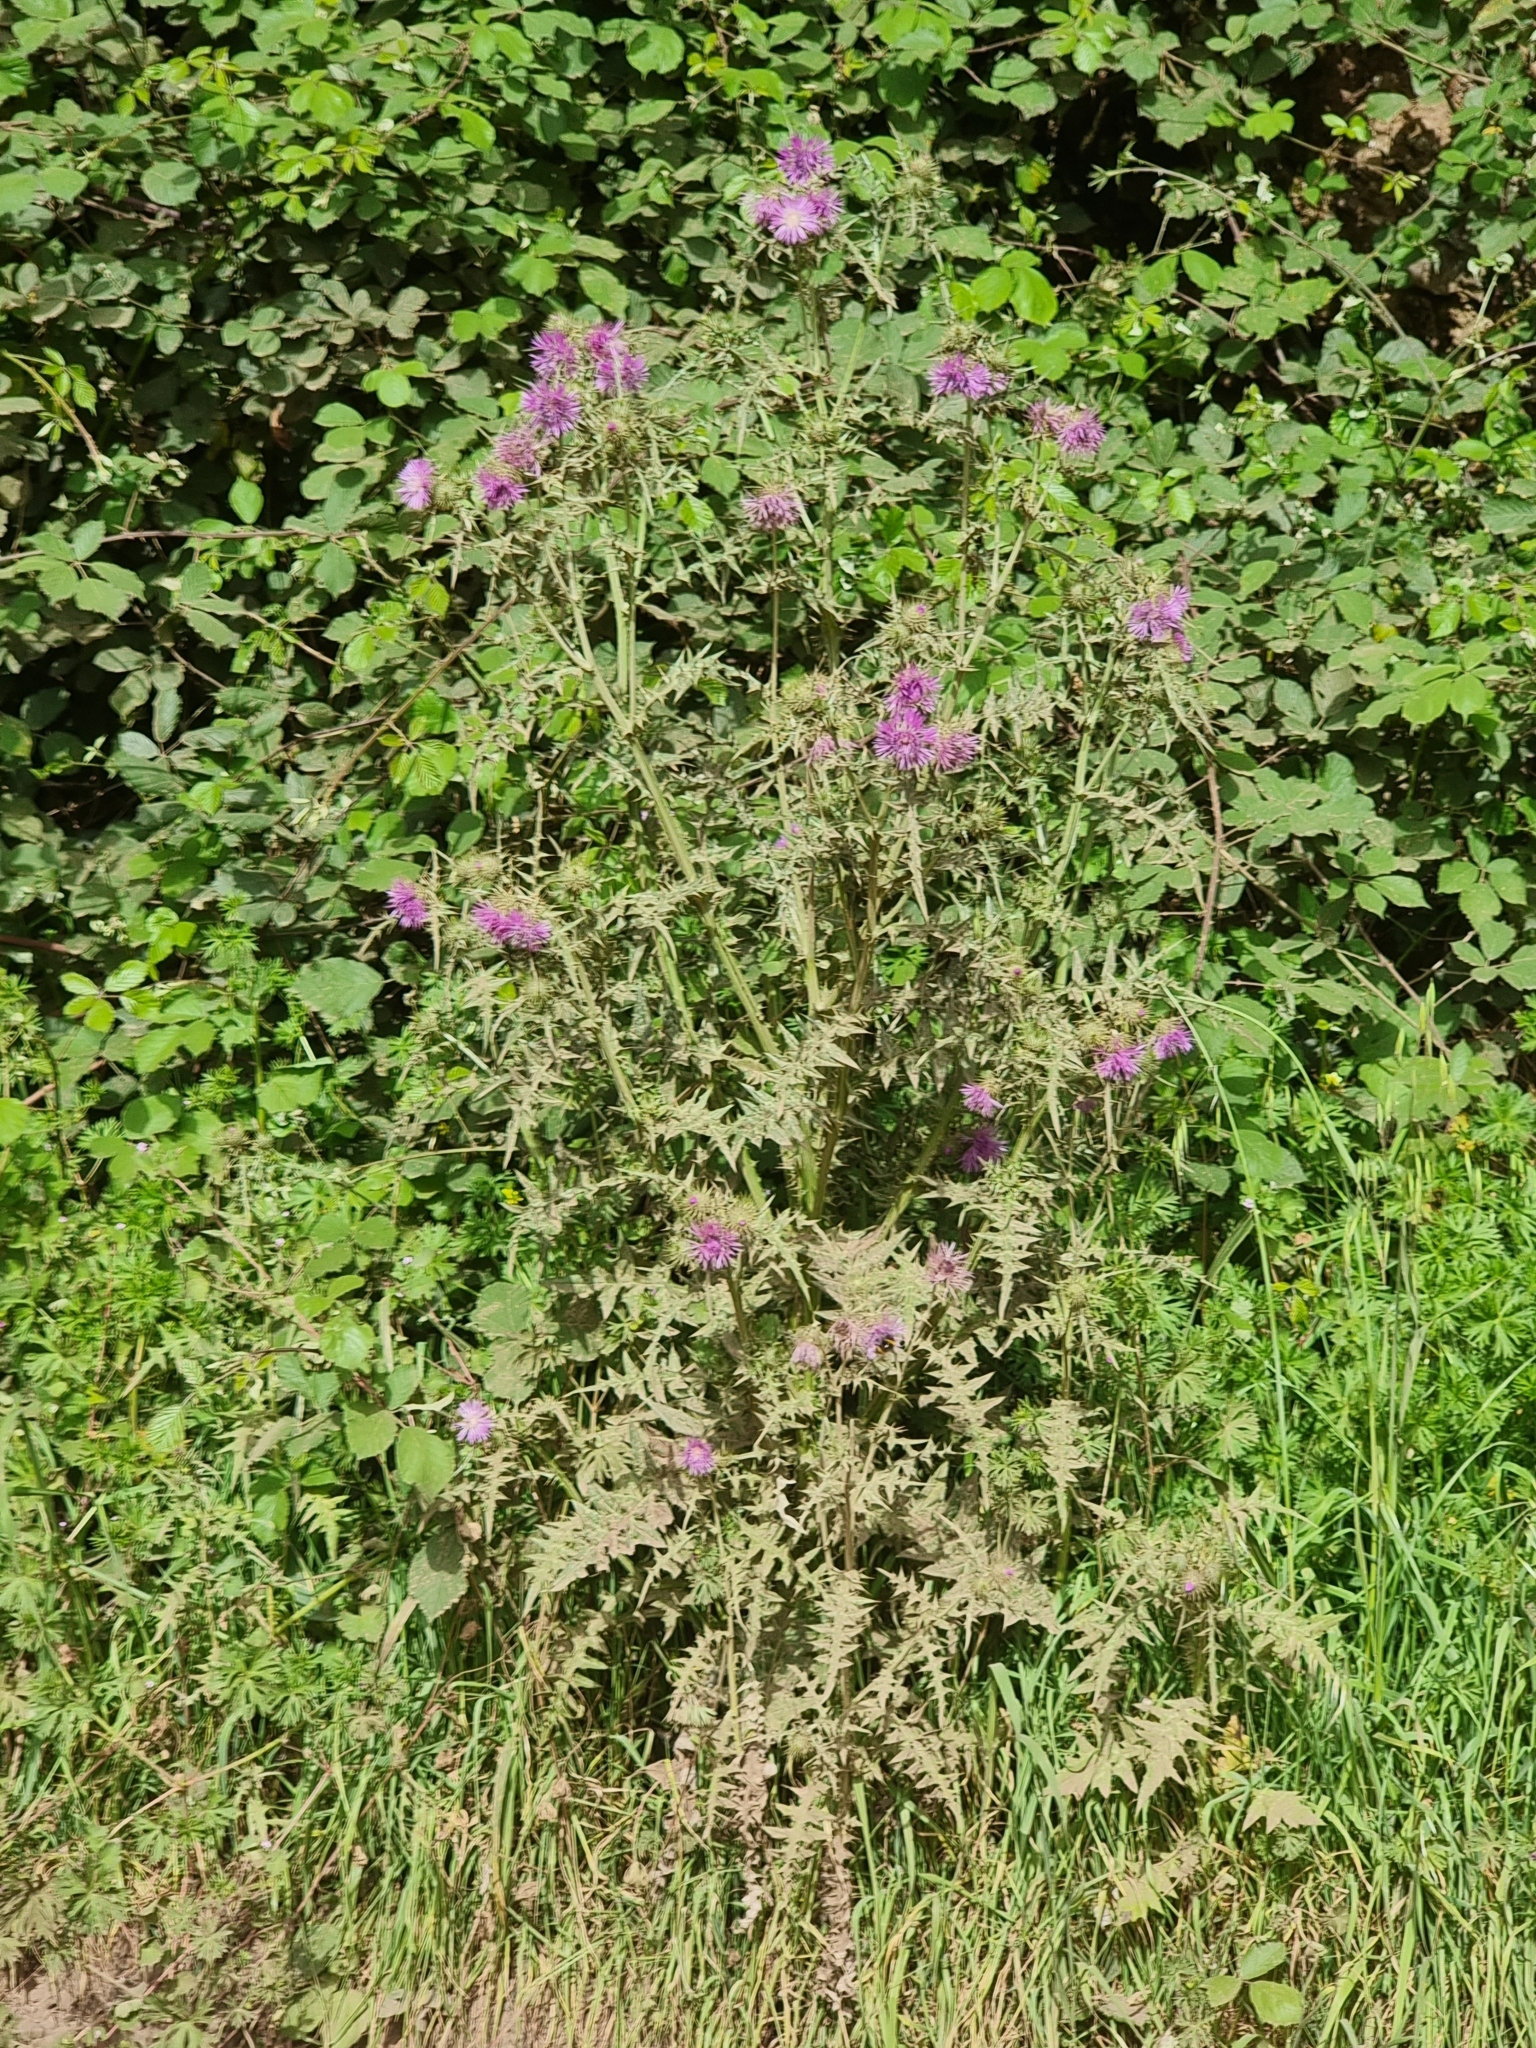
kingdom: Plantae
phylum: Tracheophyta
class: Magnoliopsida
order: Asterales
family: Asteraceae
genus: Galactites
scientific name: Galactites tomentosa
